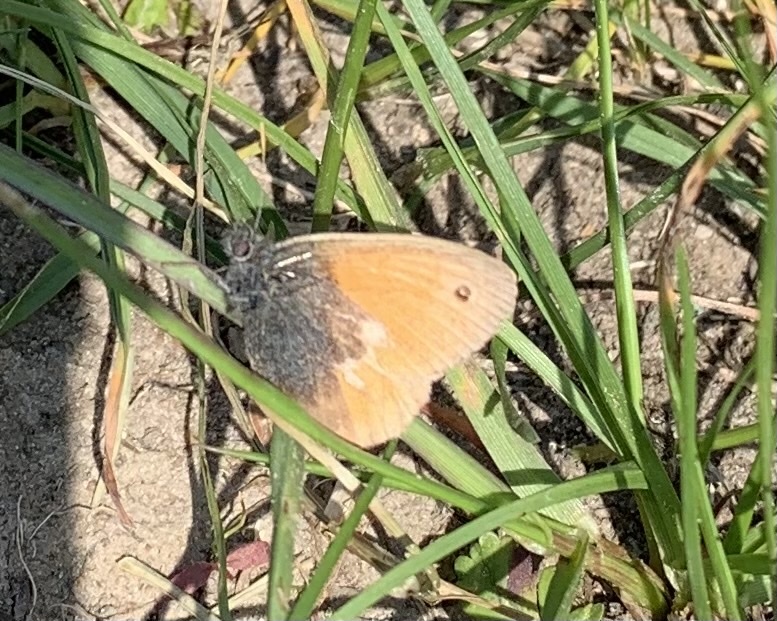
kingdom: Animalia
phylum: Arthropoda
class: Insecta
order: Lepidoptera
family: Nymphalidae
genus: Coenonympha
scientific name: Coenonympha pamphilus
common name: Small heath
